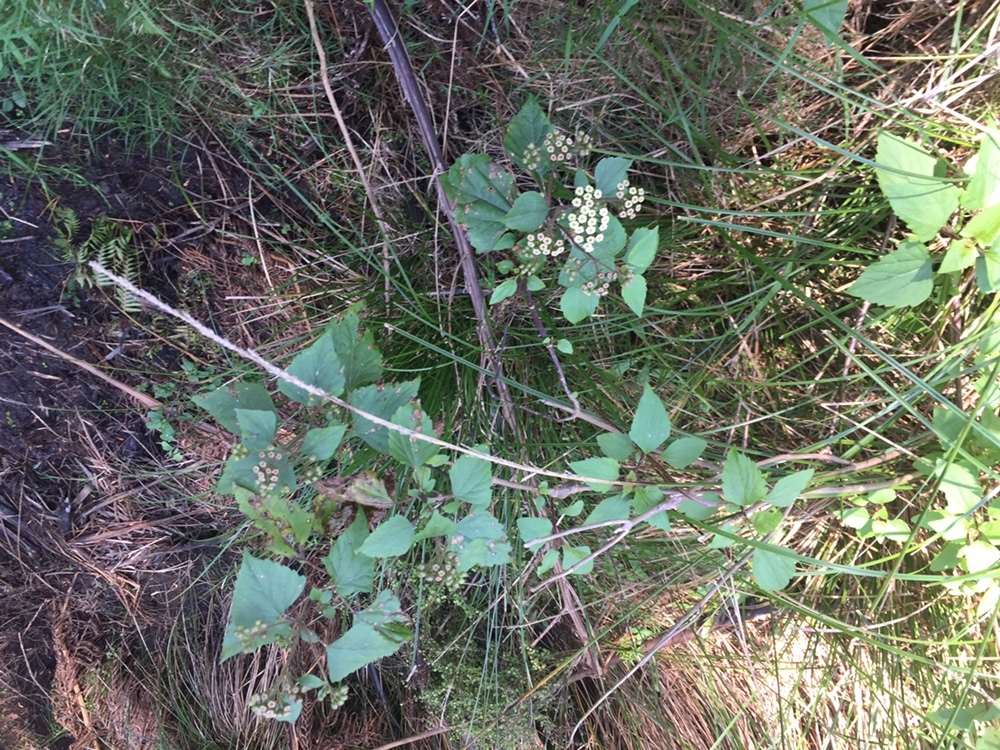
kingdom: Plantae
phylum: Tracheophyta
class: Magnoliopsida
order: Asterales
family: Asteraceae
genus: Ageratina
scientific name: Ageratina adenophora
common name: Sticky snakeroot
